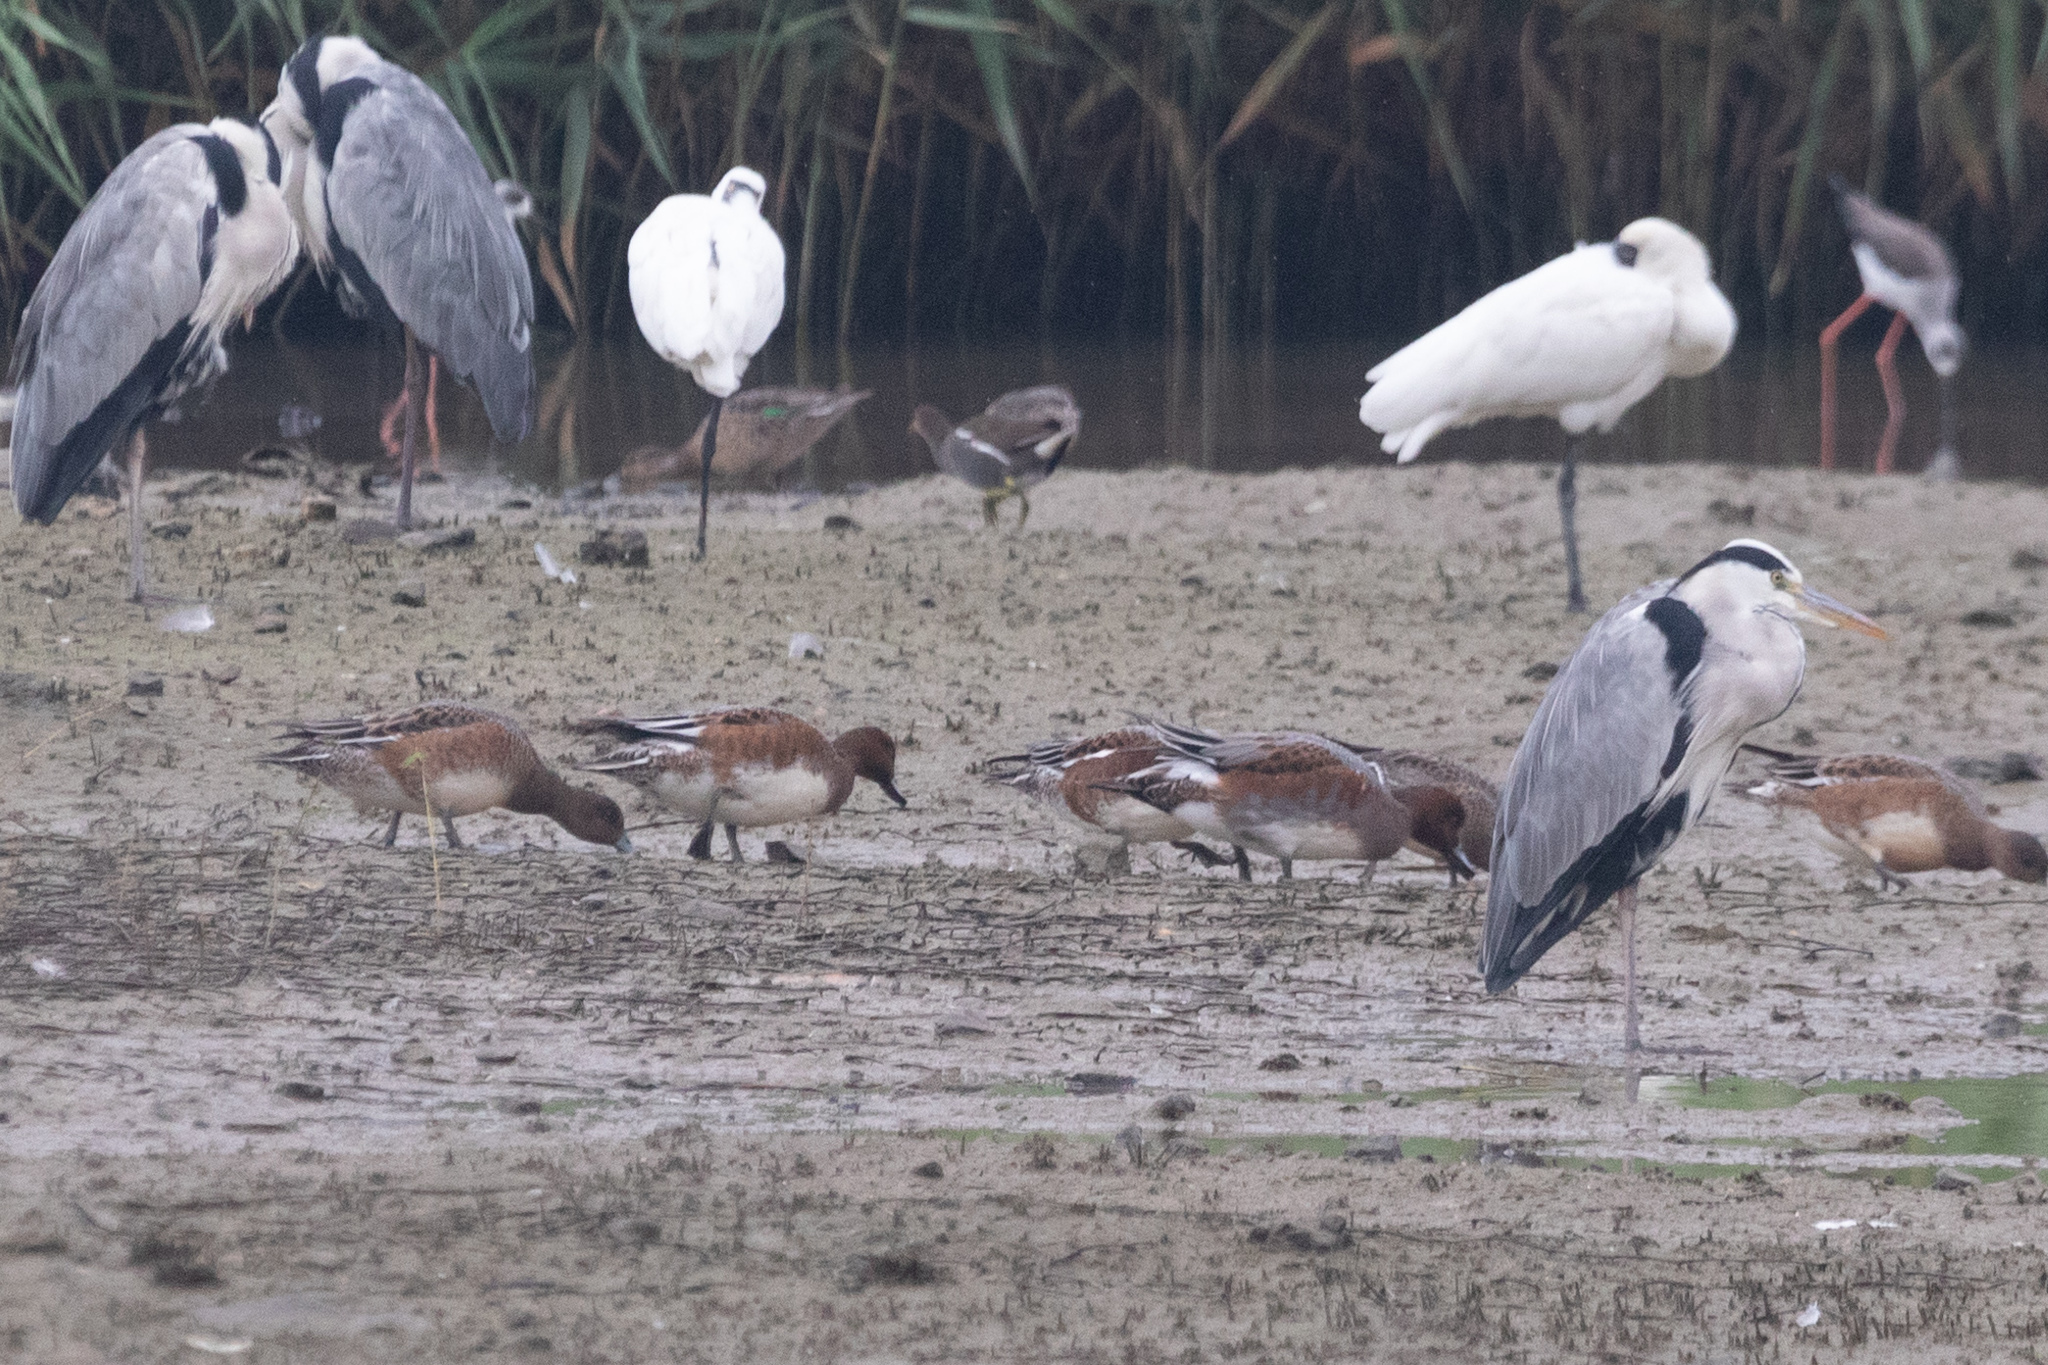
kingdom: Animalia
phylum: Chordata
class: Aves
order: Anseriformes
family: Anatidae
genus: Mareca
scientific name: Mareca penelope
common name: Eurasian wigeon
